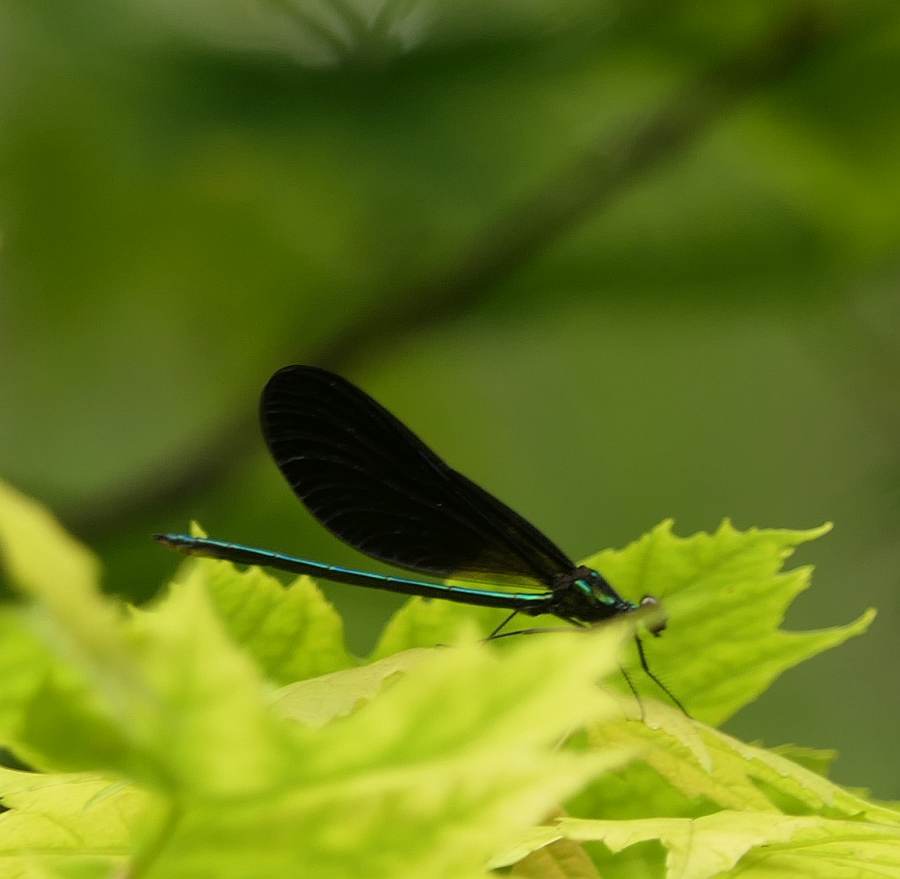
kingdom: Animalia
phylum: Arthropoda
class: Insecta
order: Odonata
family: Calopterygidae
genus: Calopteryx
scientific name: Calopteryx maculata
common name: Ebony jewelwing
